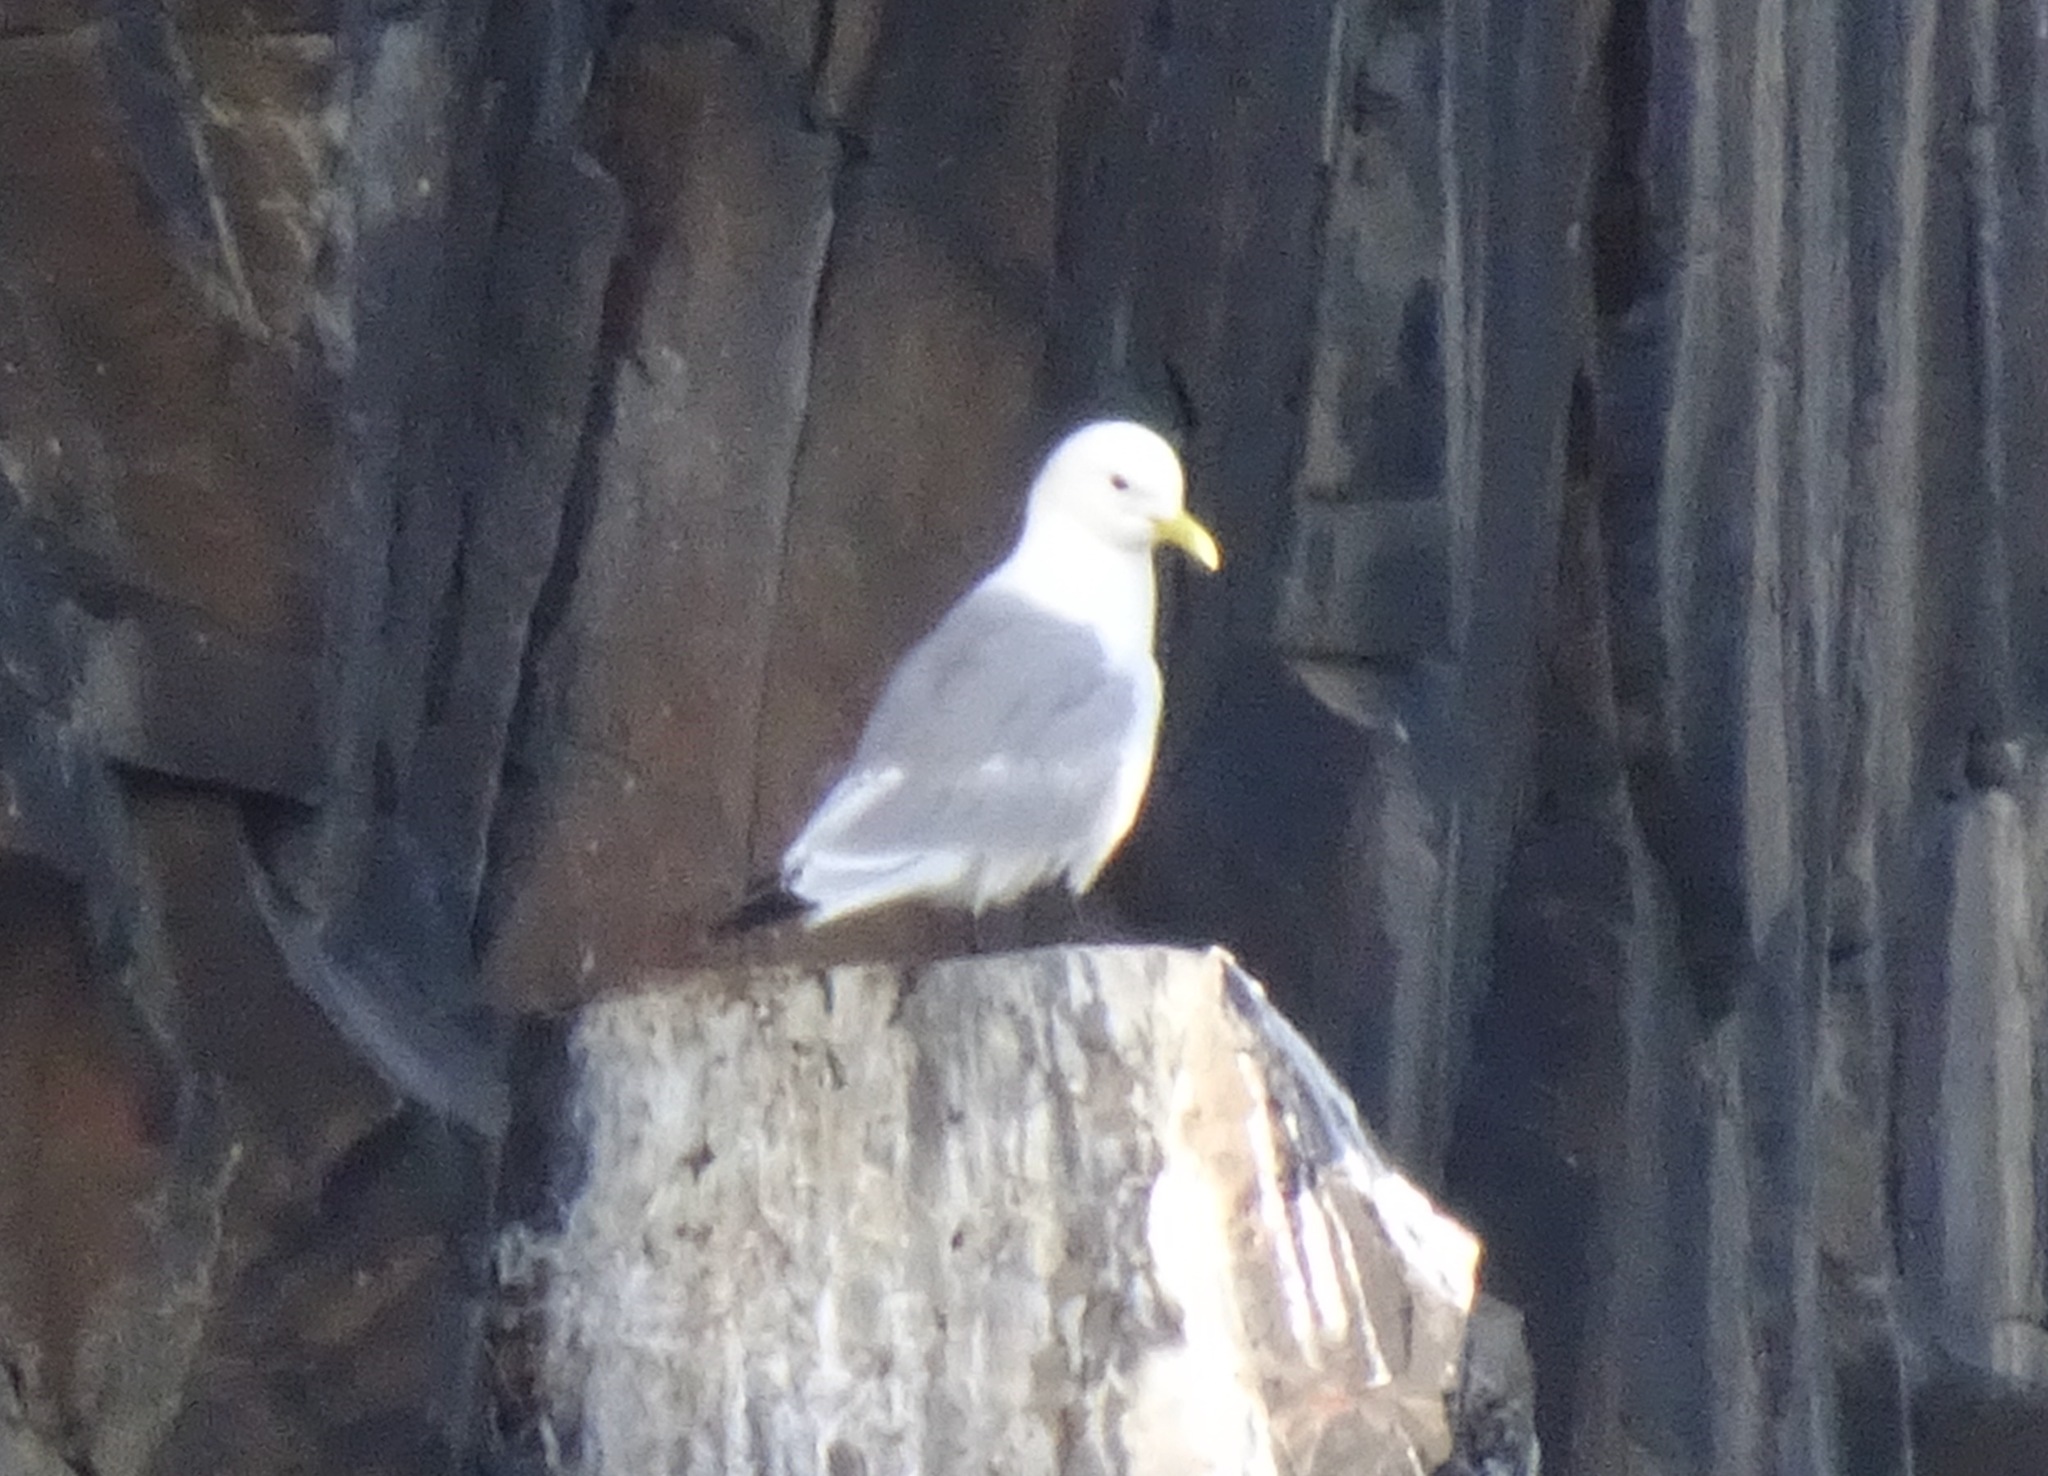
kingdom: Animalia
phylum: Chordata
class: Aves
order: Charadriiformes
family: Laridae
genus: Rissa
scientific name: Rissa tridactyla
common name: Black-legged kittiwake
